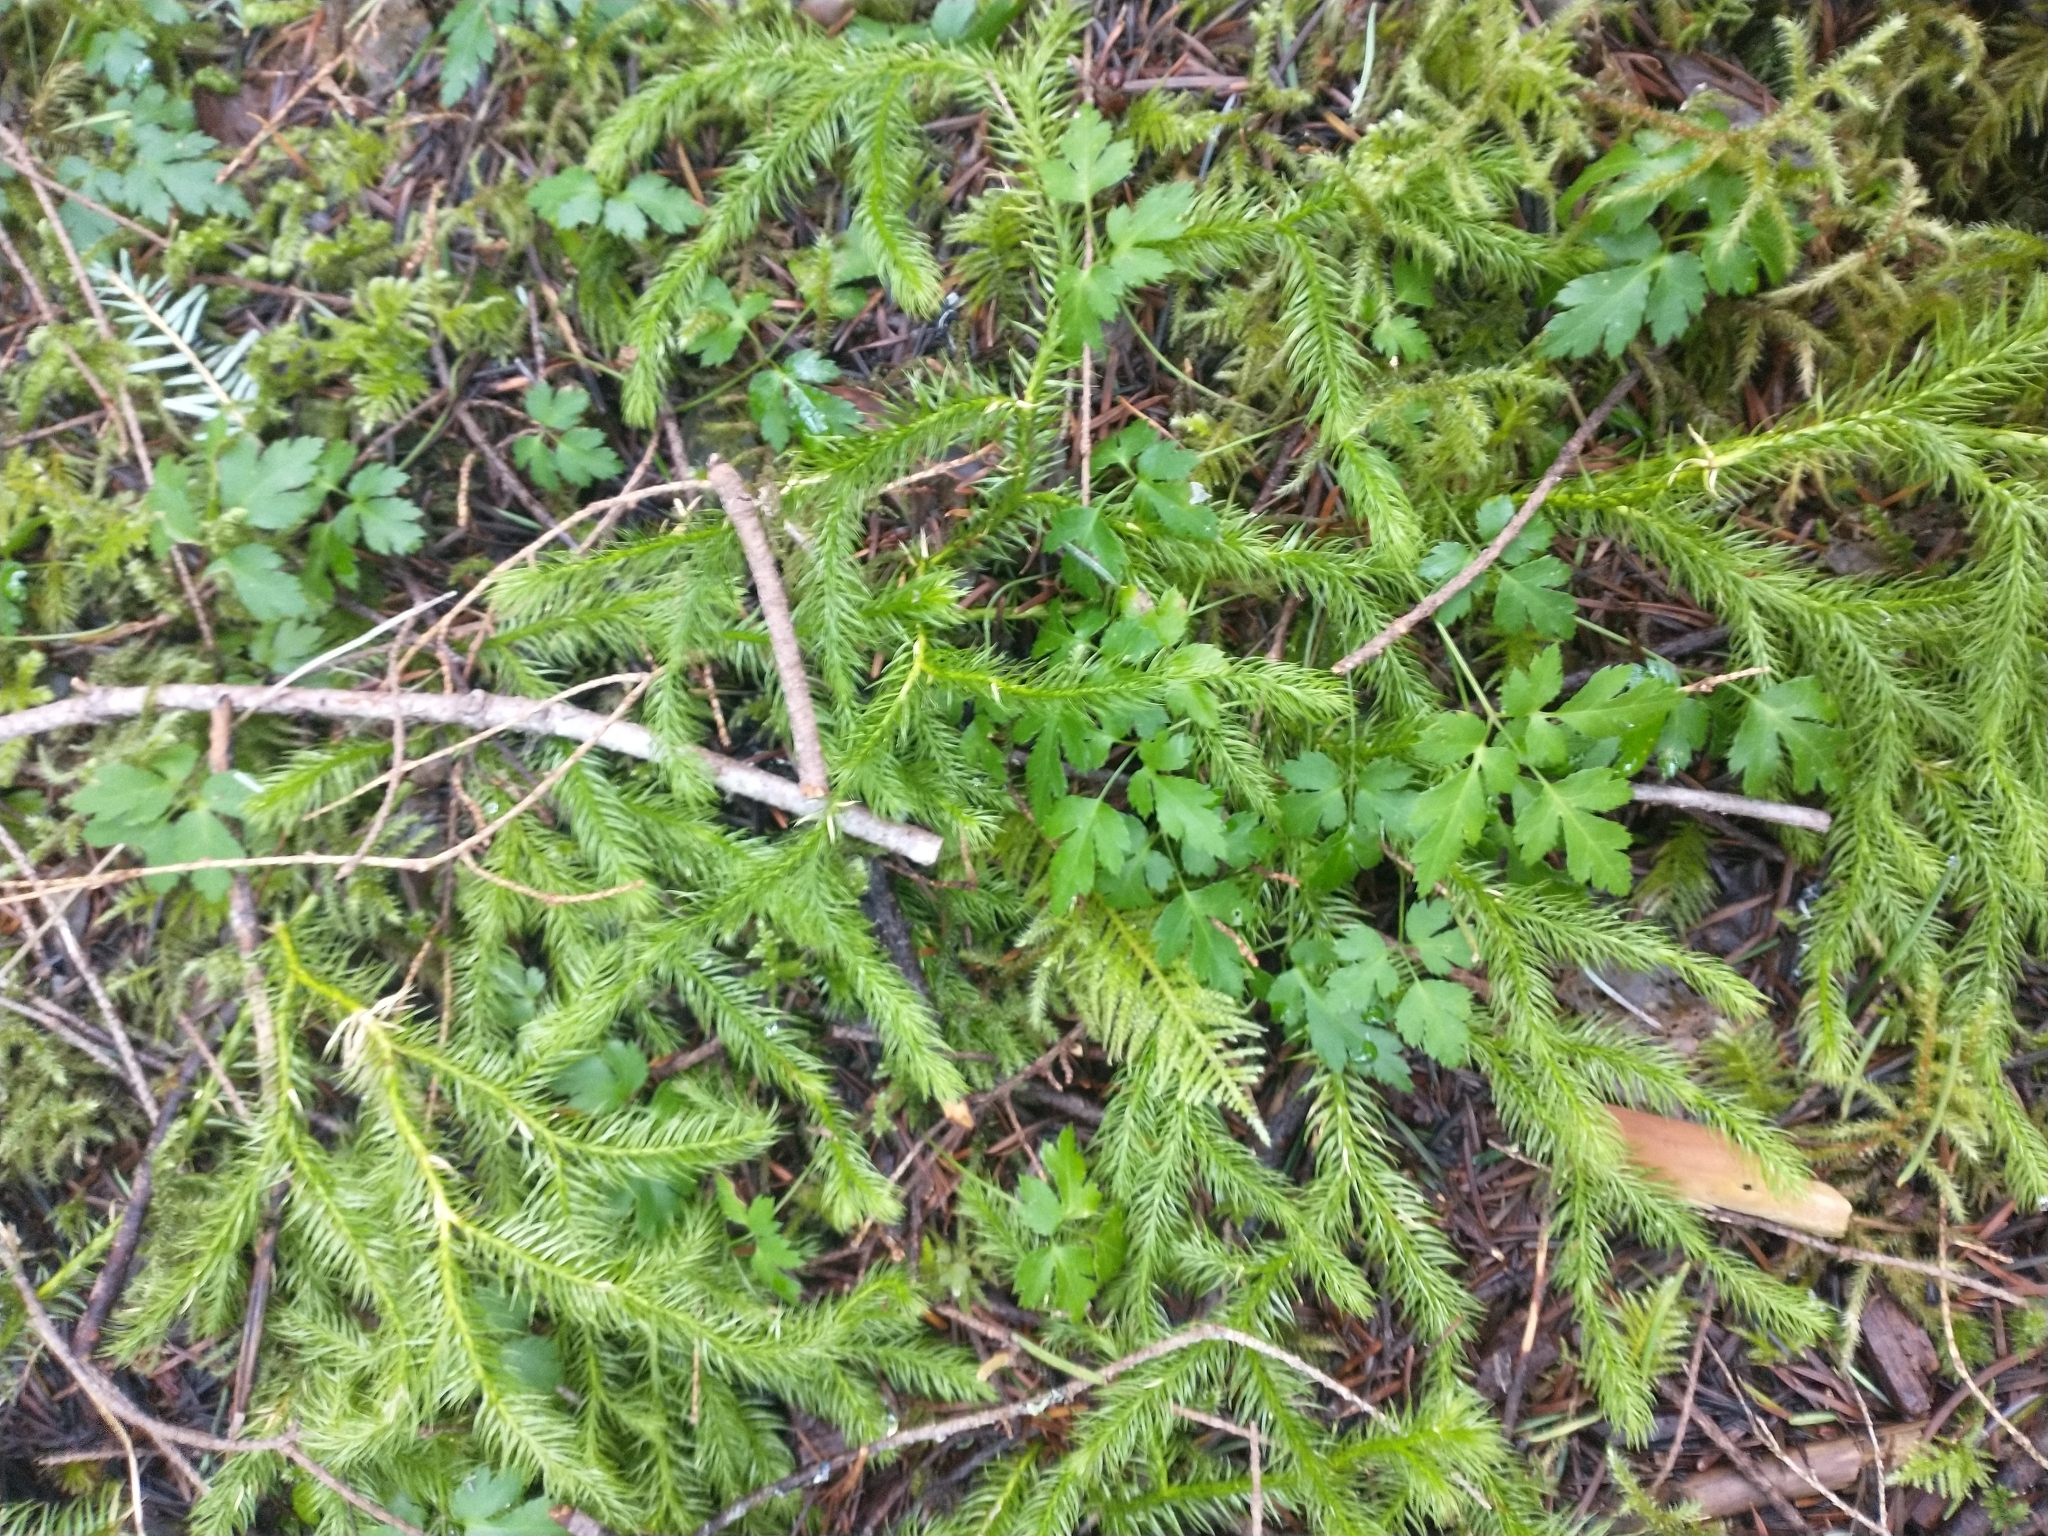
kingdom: Plantae
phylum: Tracheophyta
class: Magnoliopsida
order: Ranunculales
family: Ranunculaceae
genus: Coptis
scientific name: Coptis laciniata
